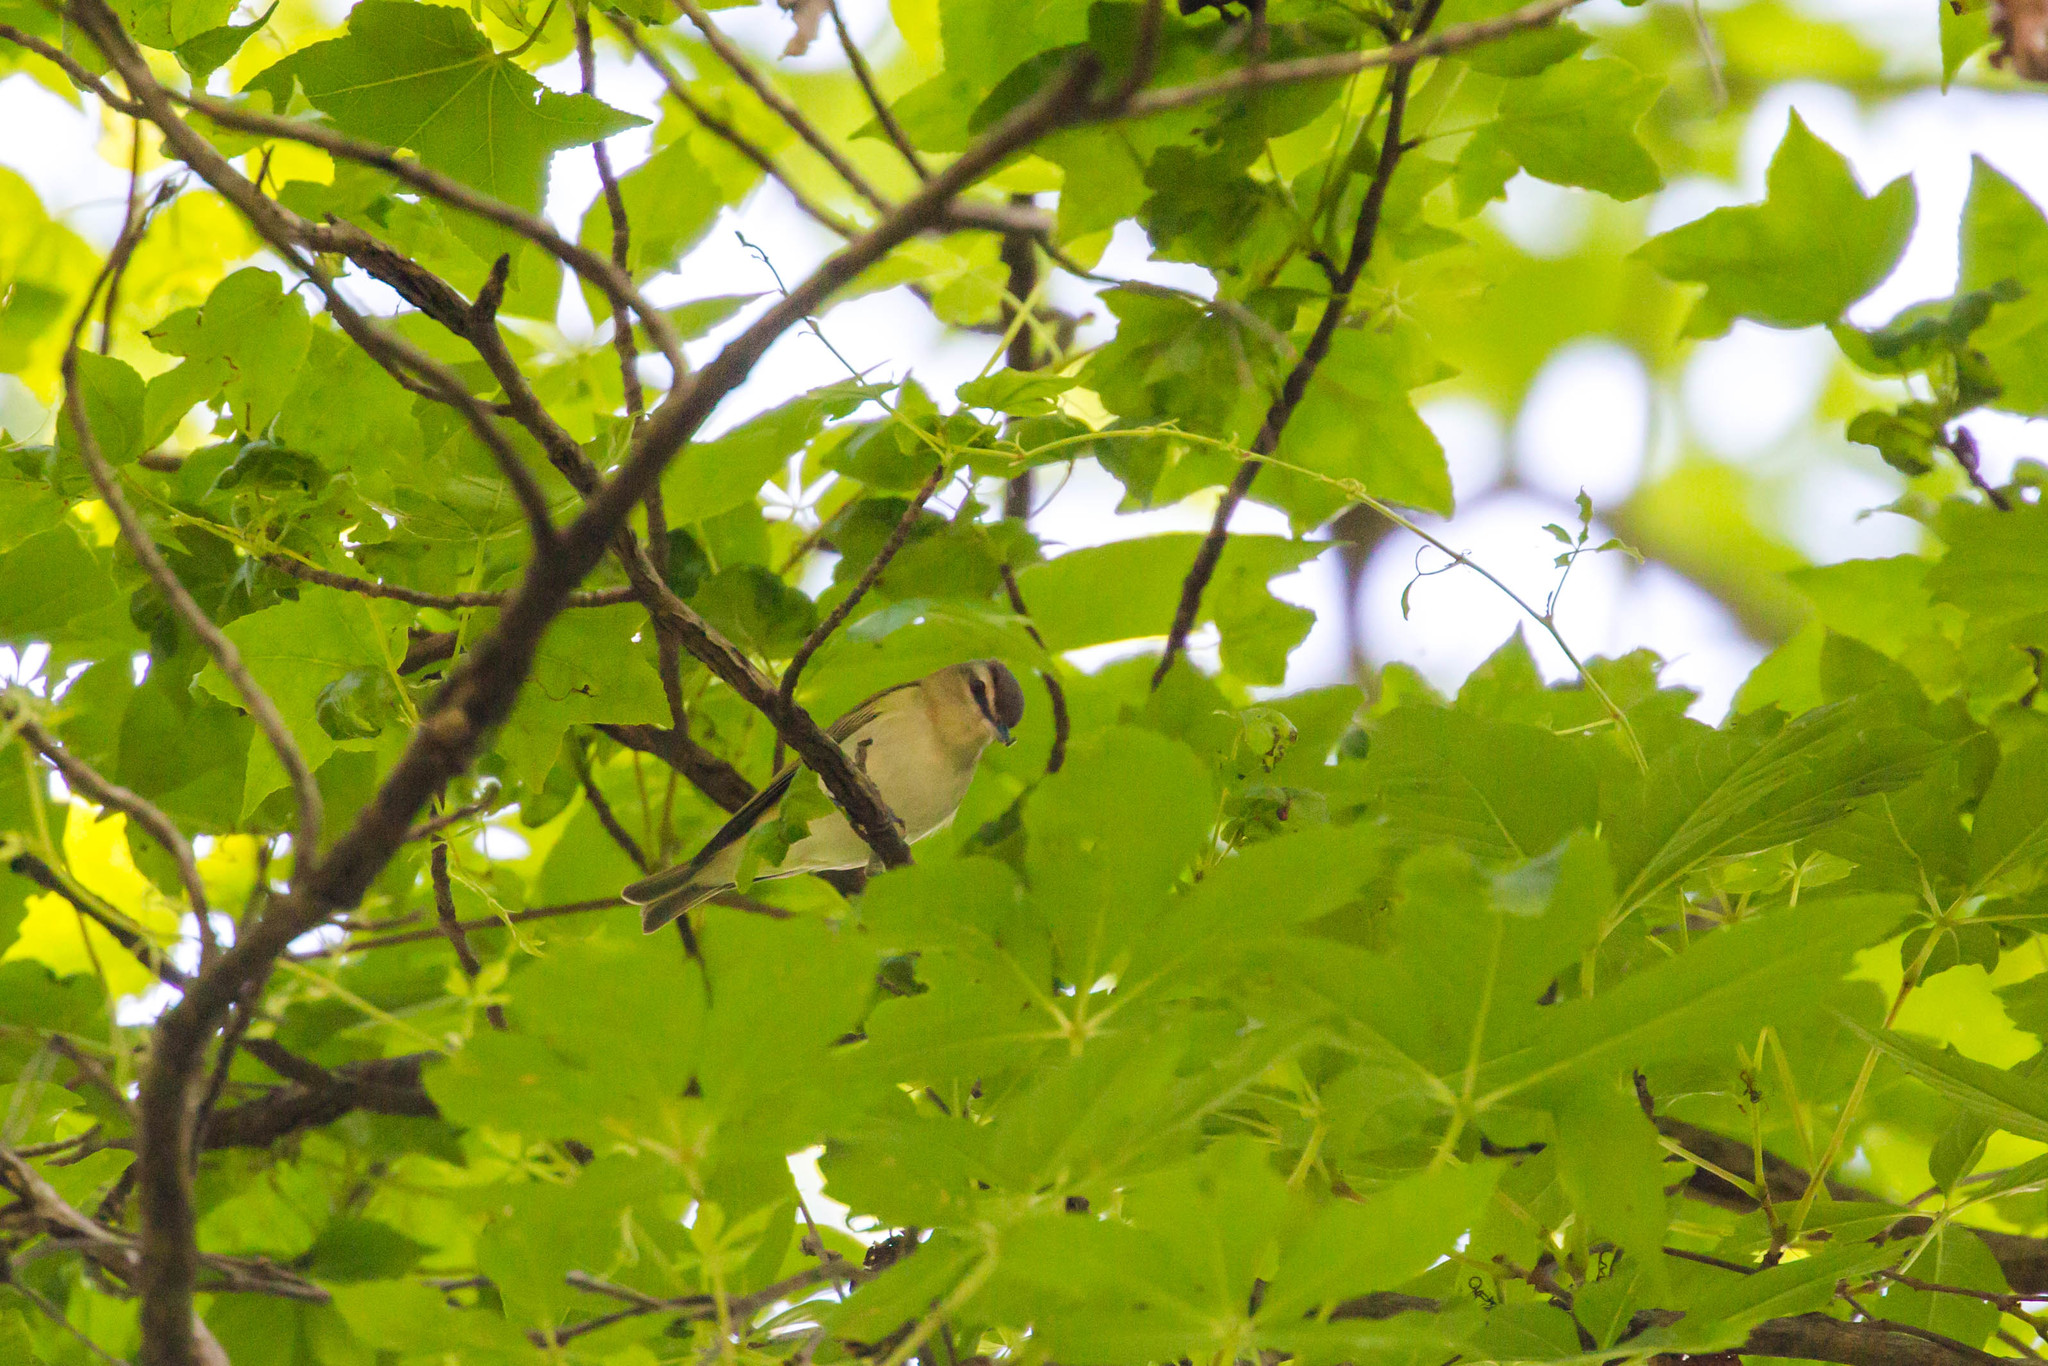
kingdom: Animalia
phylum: Chordata
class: Aves
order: Passeriformes
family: Vireonidae
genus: Vireo
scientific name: Vireo olivaceus
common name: Red-eyed vireo
